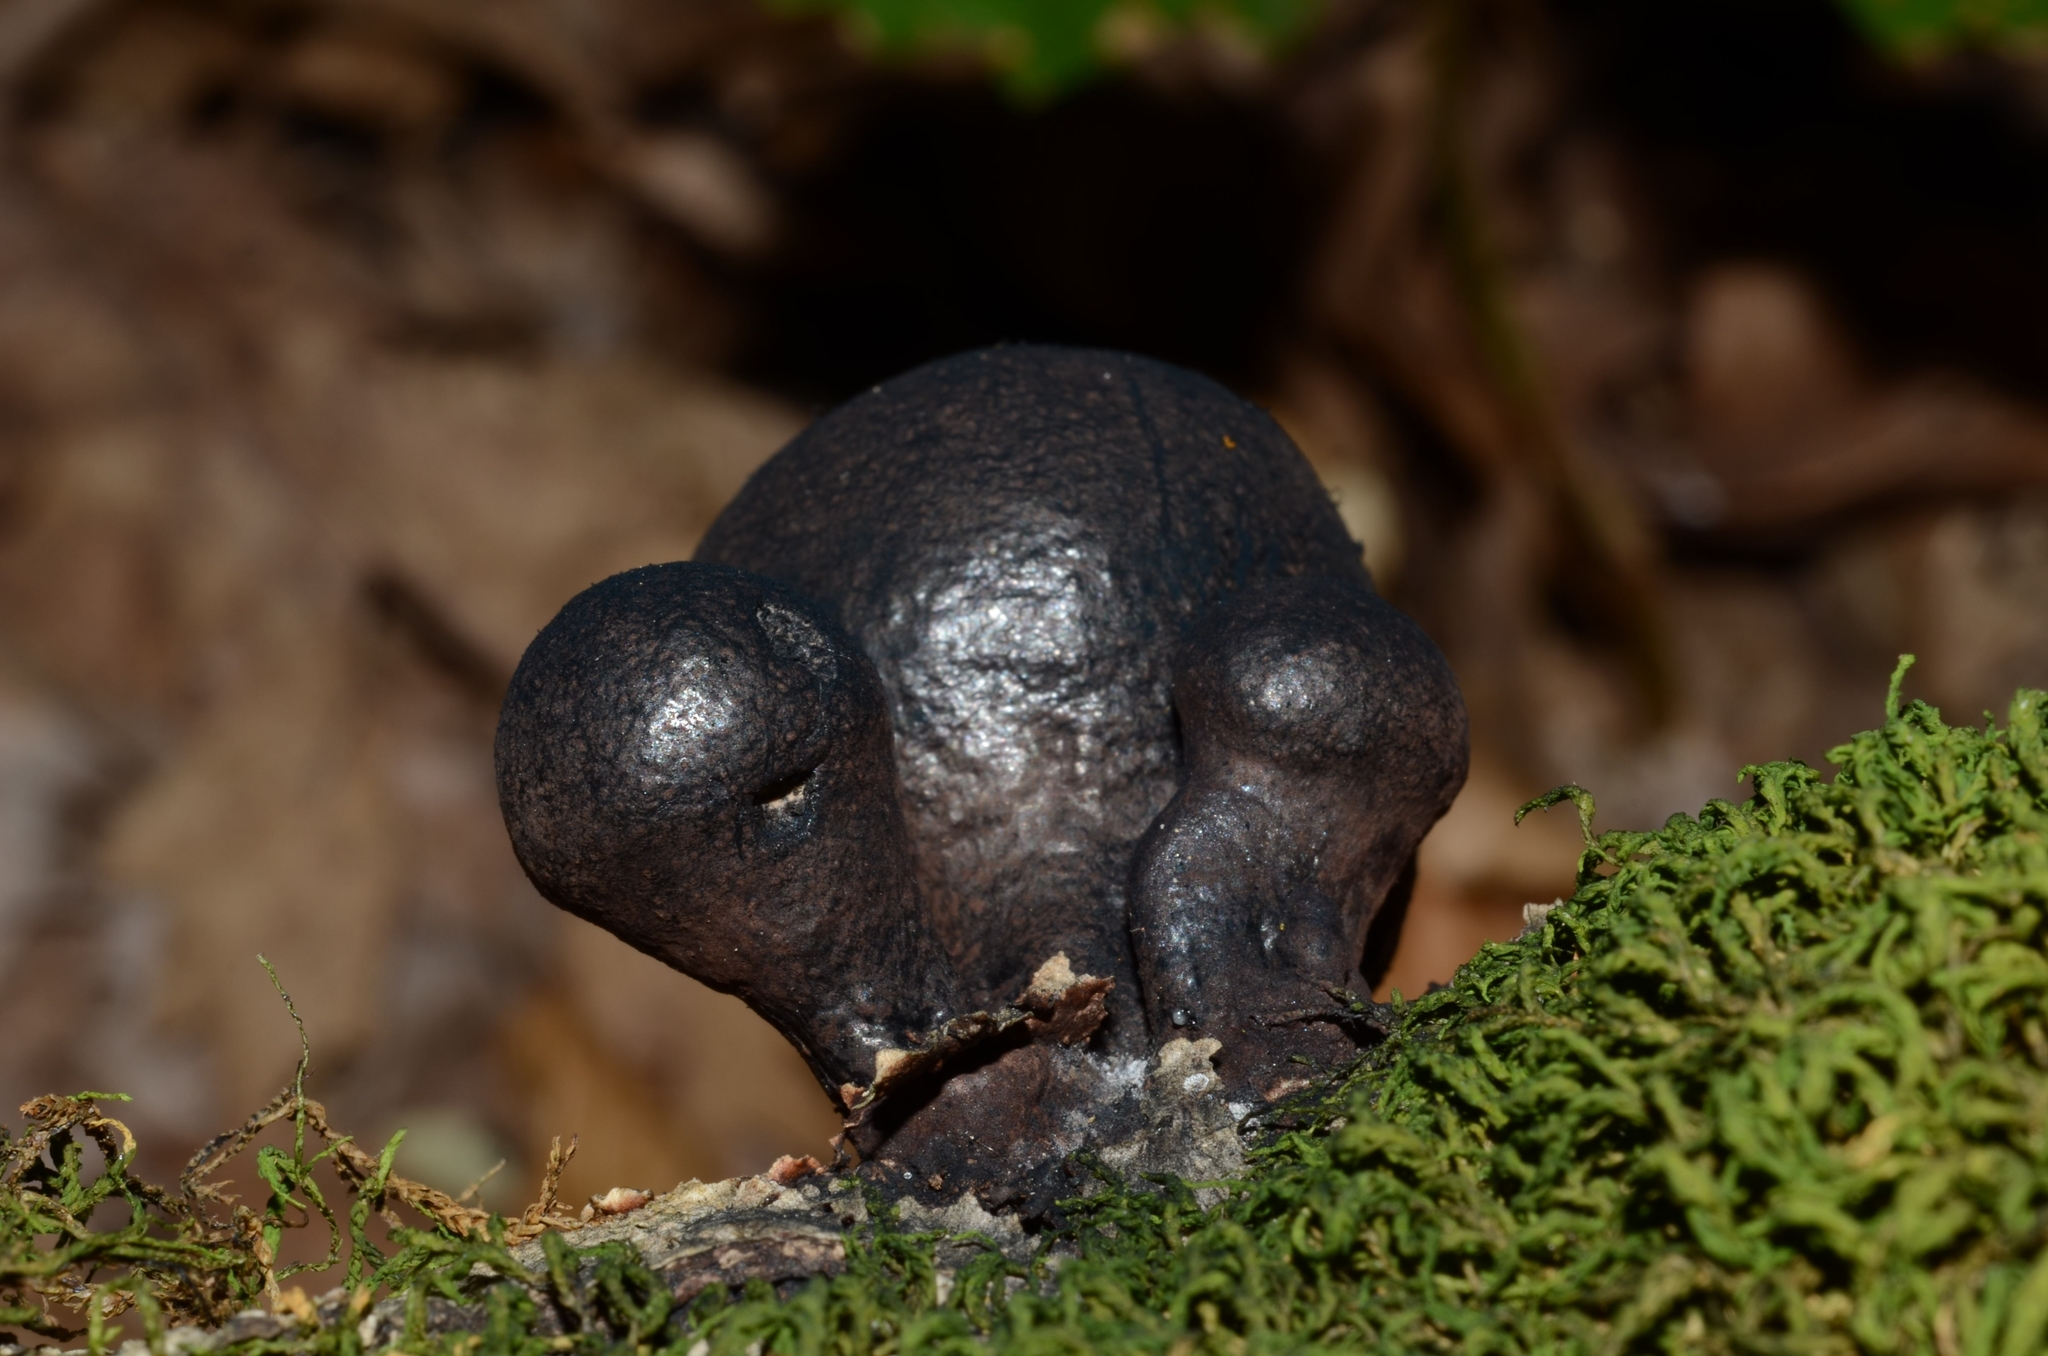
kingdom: Fungi
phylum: Ascomycota
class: Sordariomycetes
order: Xylariales
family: Hypoxylaceae
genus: Daldinia
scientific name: Daldinia vernicosa
